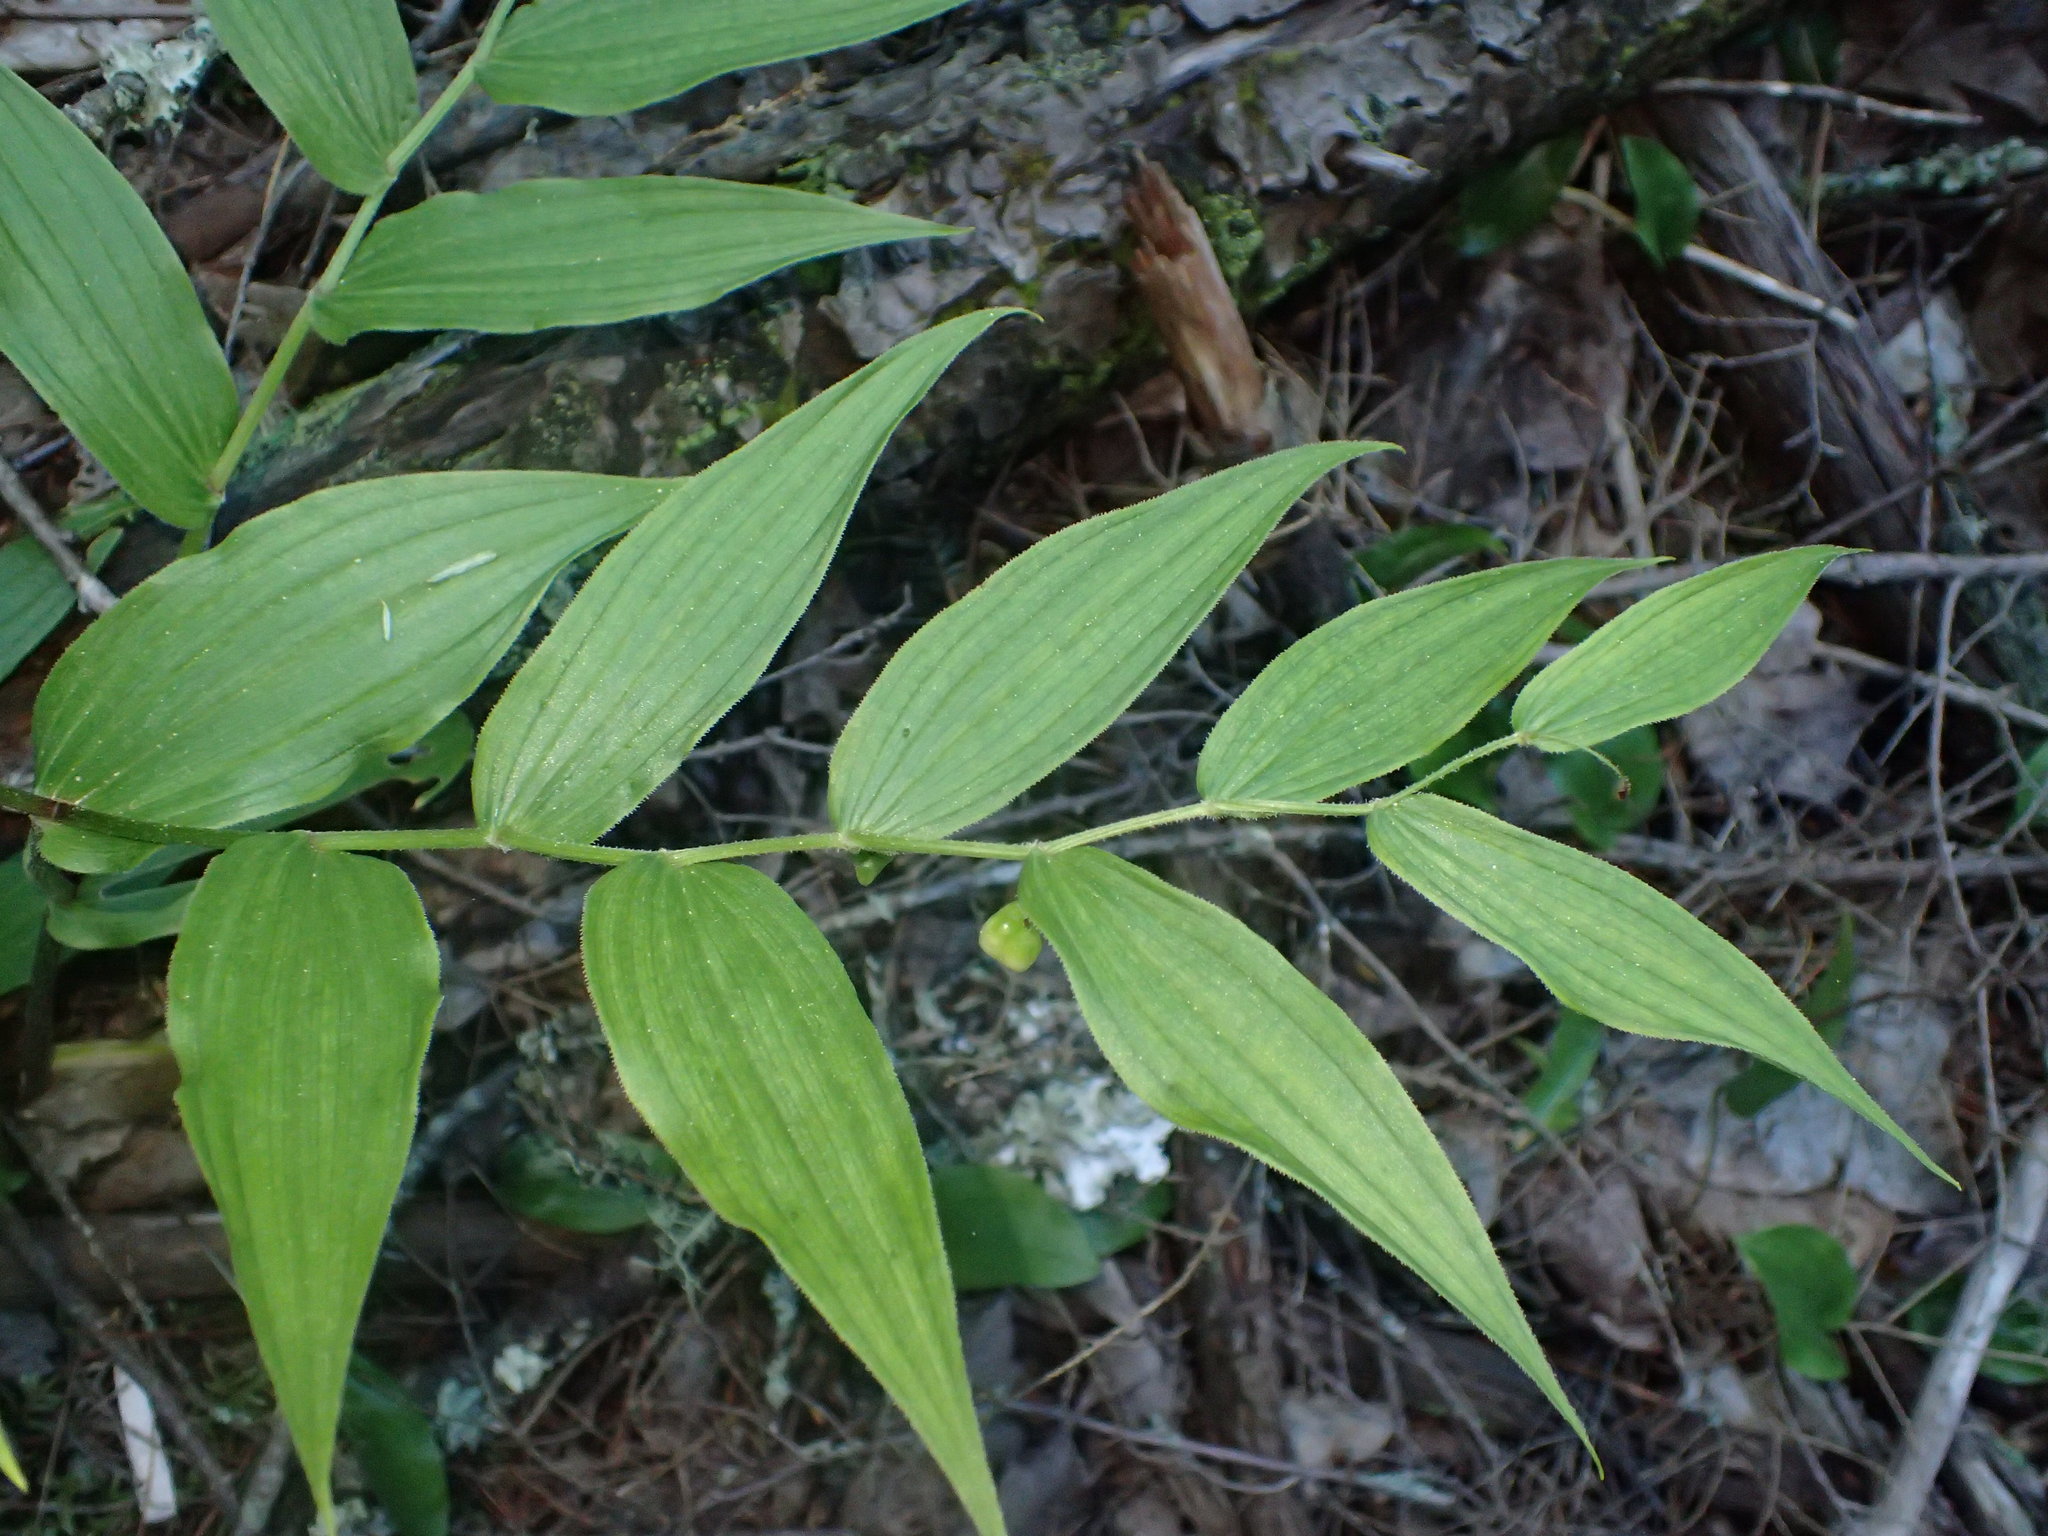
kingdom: Plantae
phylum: Tracheophyta
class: Liliopsida
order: Liliales
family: Liliaceae
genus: Streptopus
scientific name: Streptopus lanceolatus
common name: Rose mandarin
